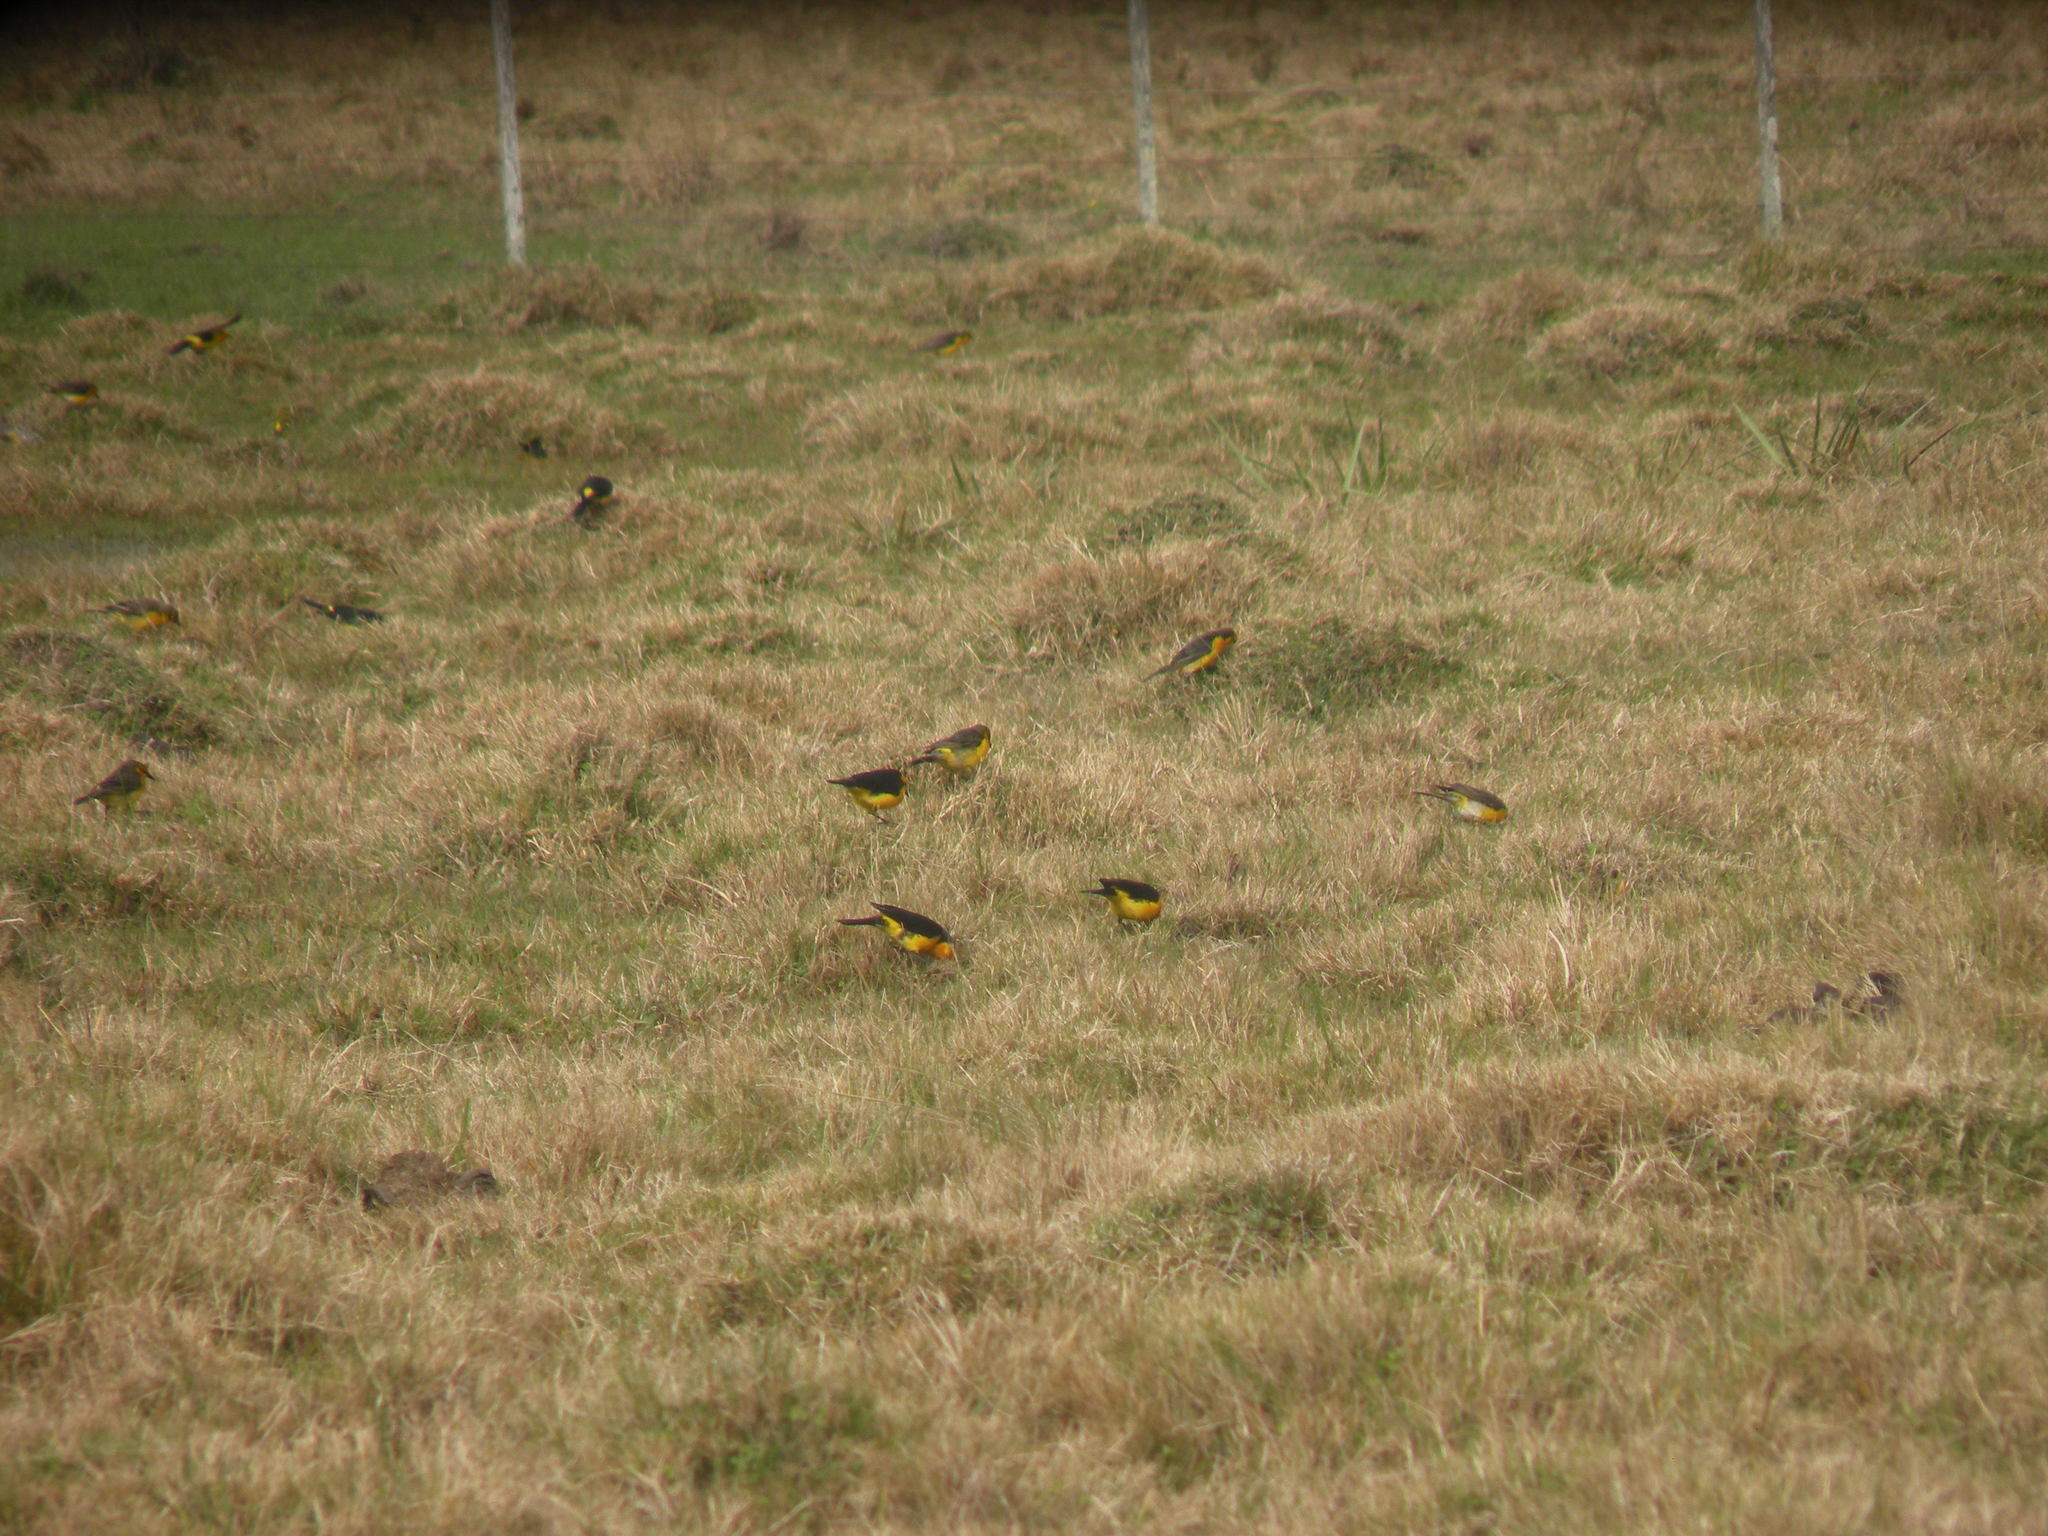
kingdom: Animalia
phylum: Chordata
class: Aves
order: Passeriformes
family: Icteridae
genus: Xanthopsar
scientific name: Xanthopsar flavus
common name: Saffron-cowled blackbird
